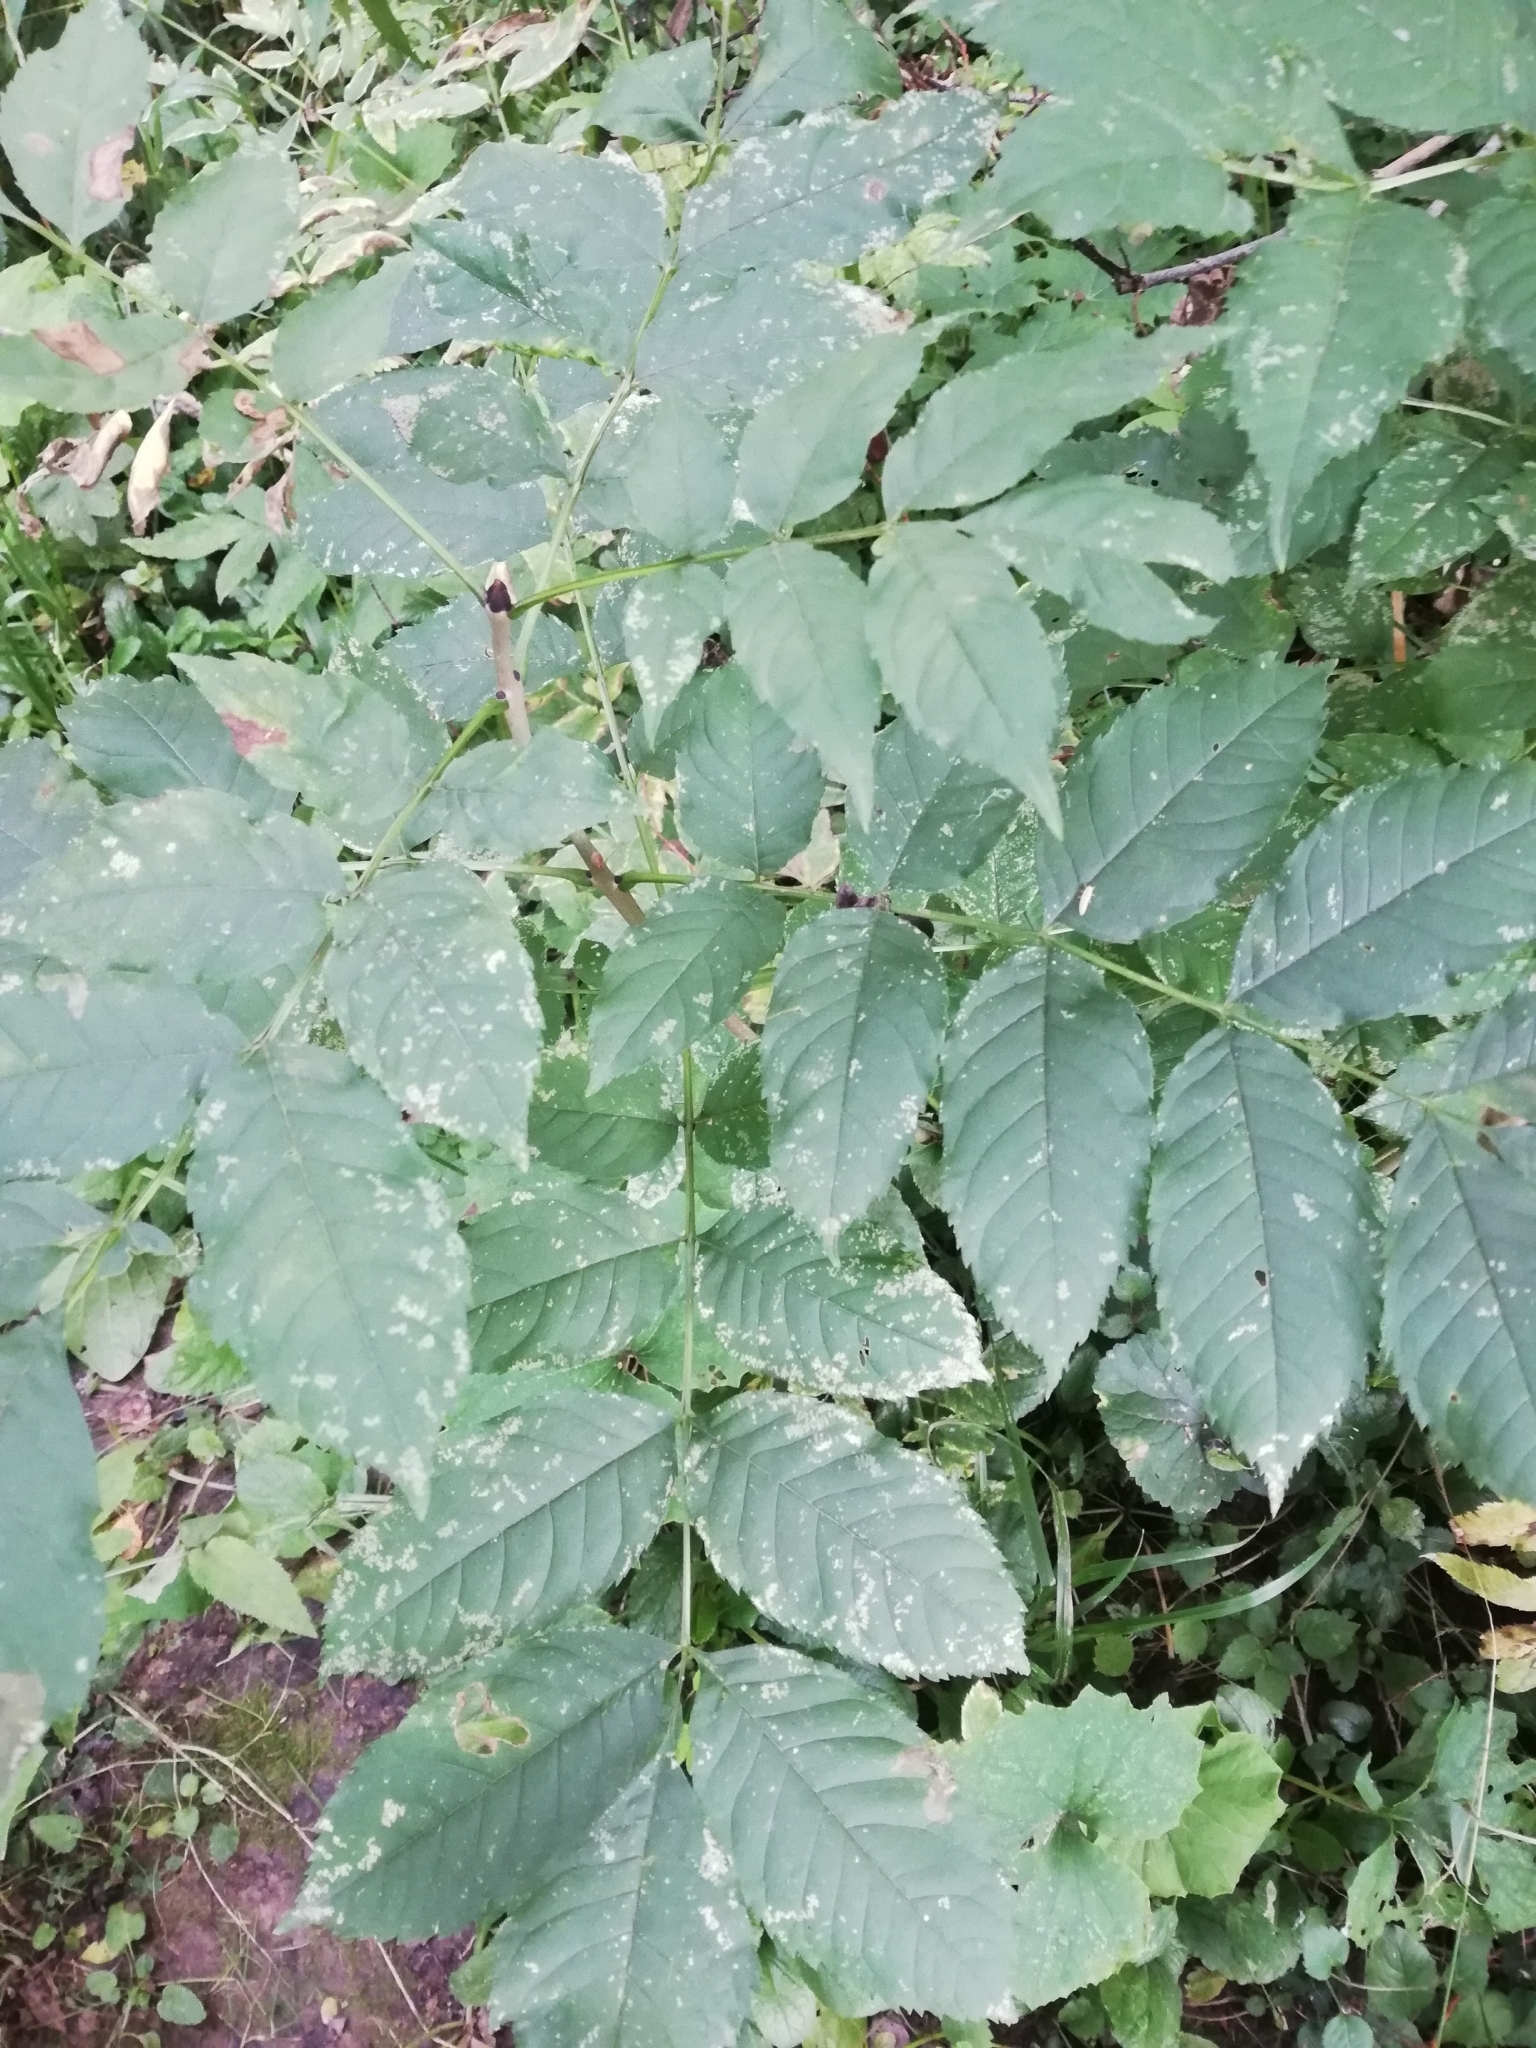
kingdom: Plantae
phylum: Tracheophyta
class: Magnoliopsida
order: Lamiales
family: Oleaceae
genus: Fraxinus
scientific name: Fraxinus excelsior
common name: European ash
